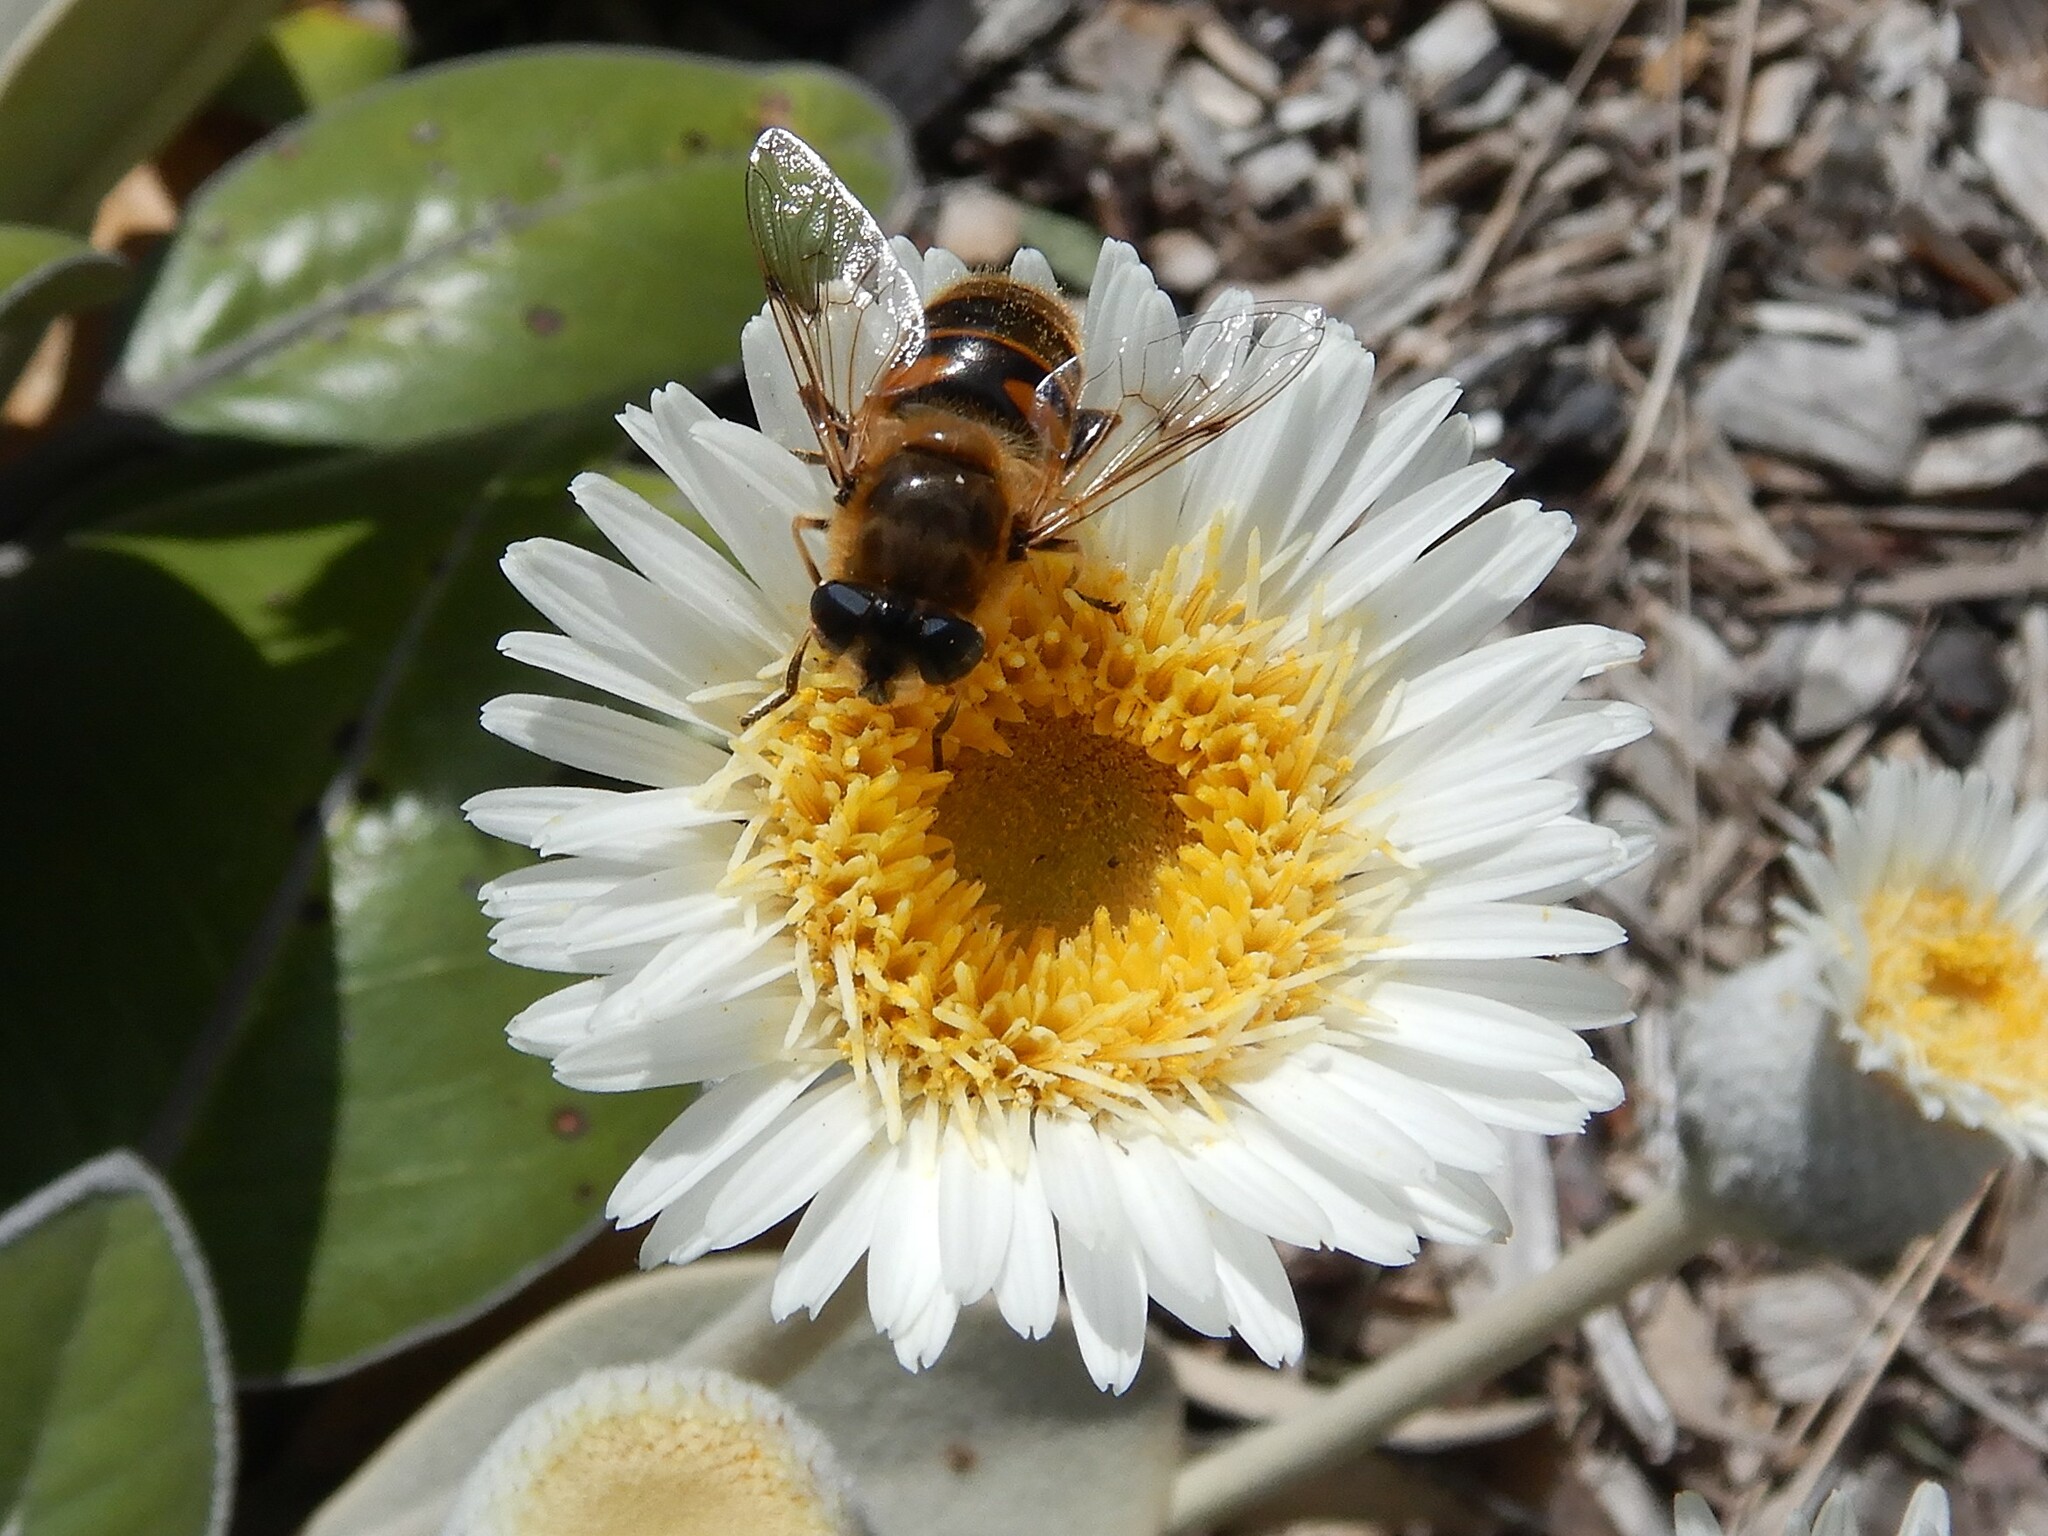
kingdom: Animalia
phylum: Arthropoda
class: Insecta
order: Diptera
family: Syrphidae
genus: Eristalis
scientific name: Eristalis tenax
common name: Drone fly
